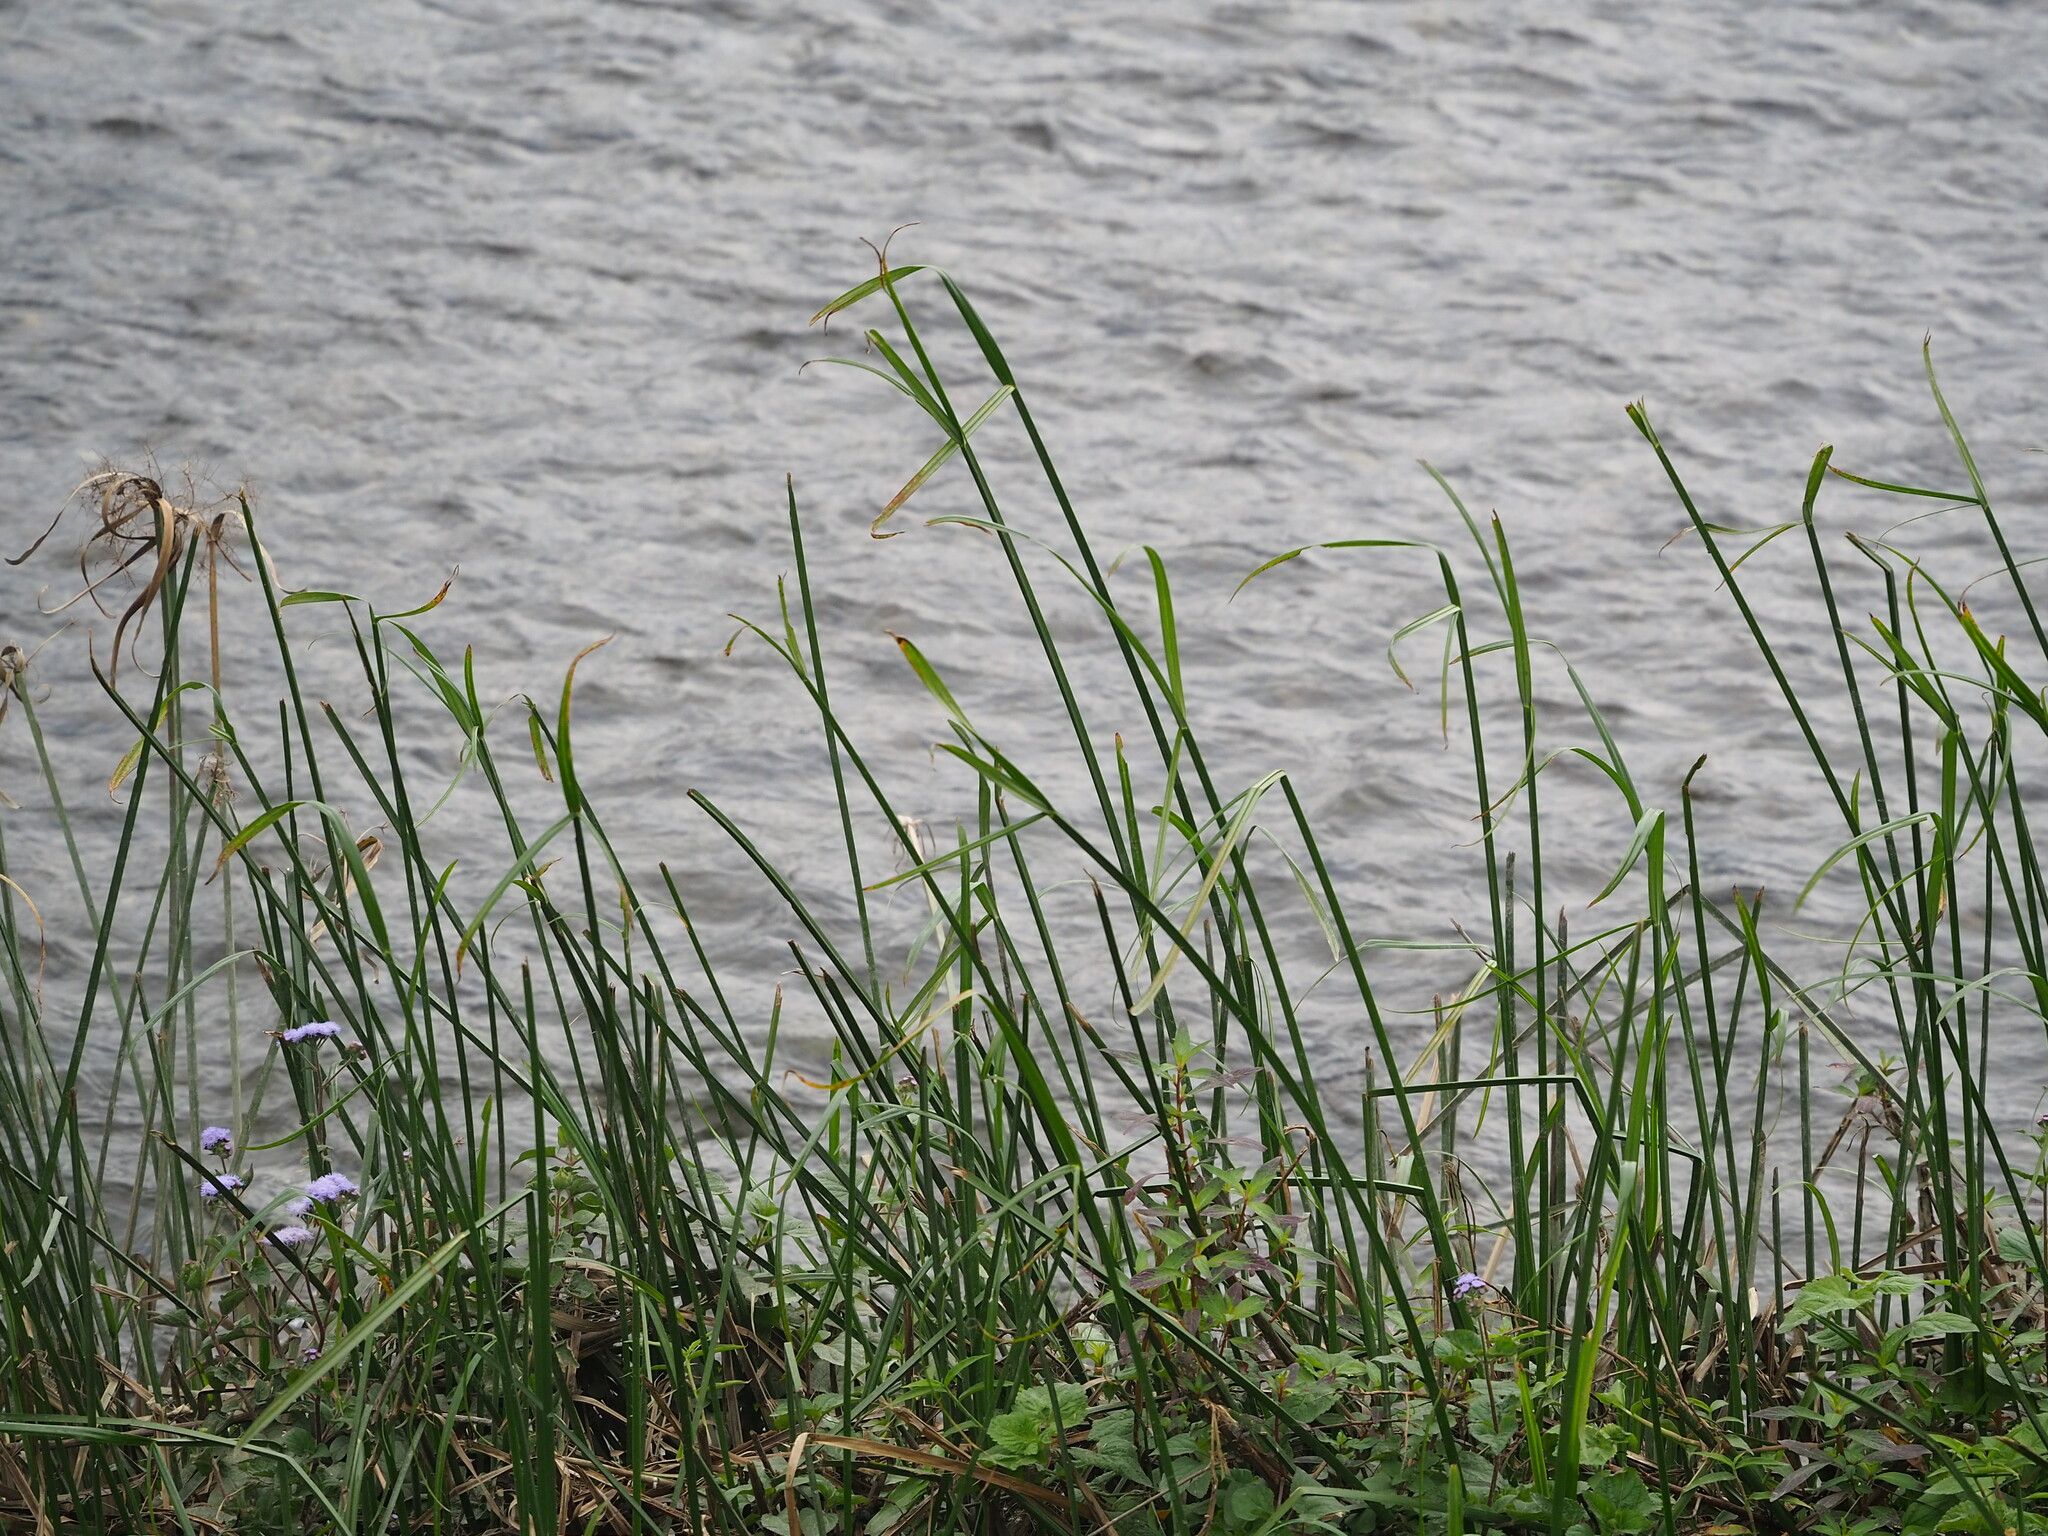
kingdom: Plantae
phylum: Tracheophyta
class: Liliopsida
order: Poales
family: Cyperaceae
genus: Cyperus
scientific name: Cyperus malaccensis
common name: Shichito matgrass
